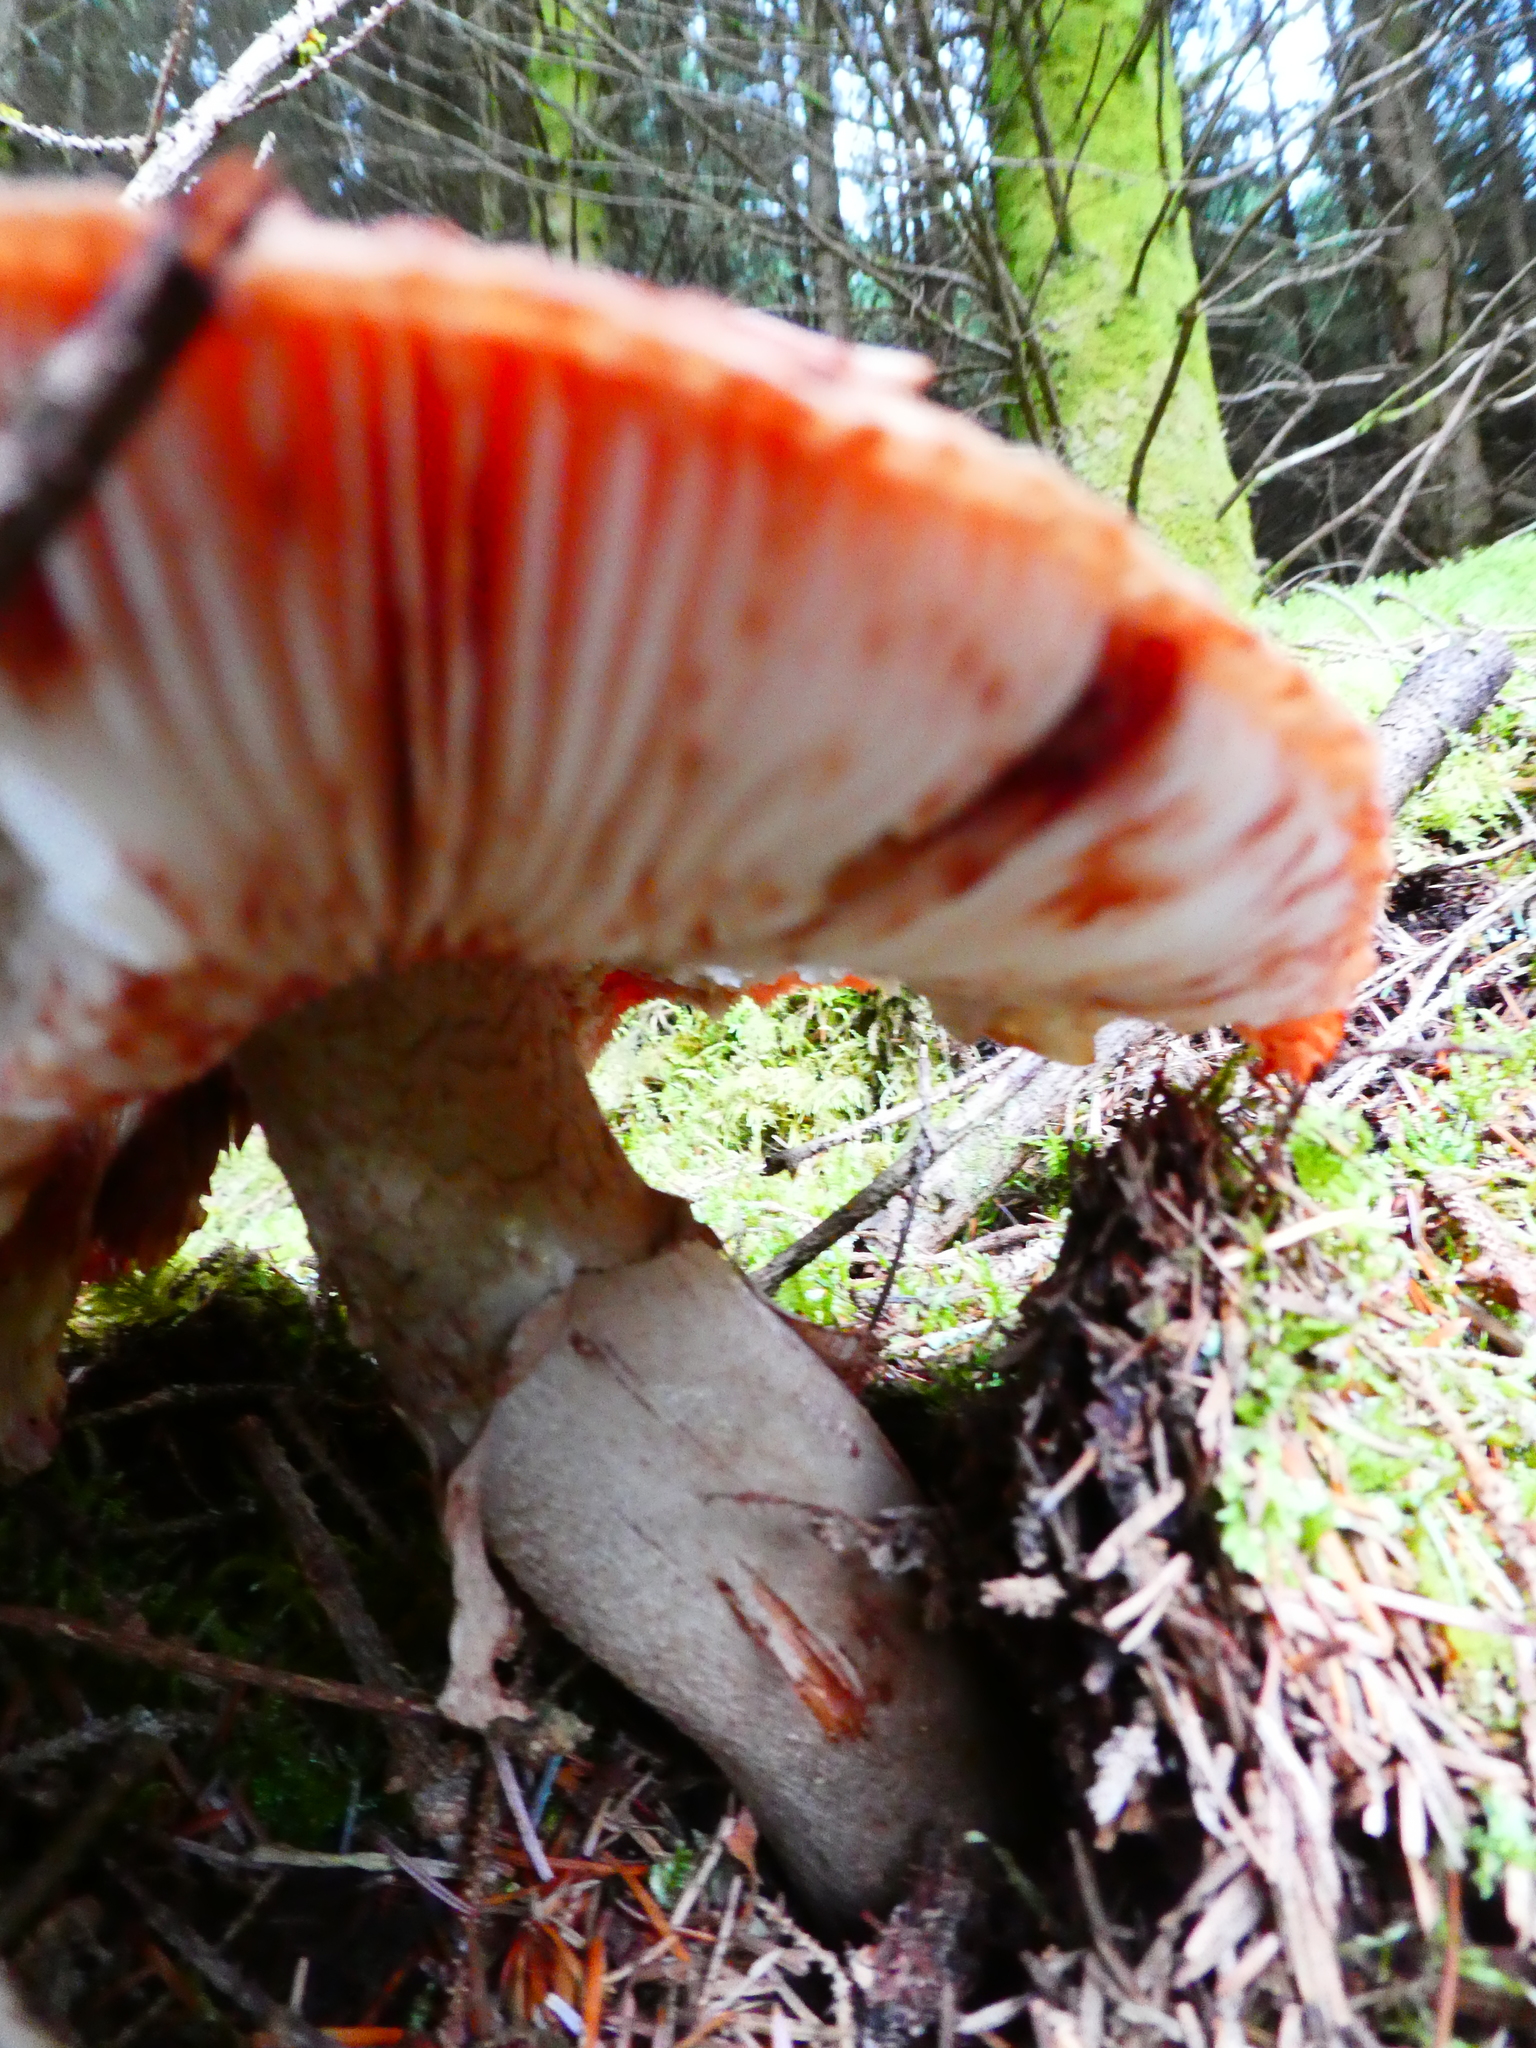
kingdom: Fungi
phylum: Basidiomycota
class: Agaricomycetes
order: Agaricales
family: Amanitaceae
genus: Amanita
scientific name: Amanita rubescens
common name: Blusher
